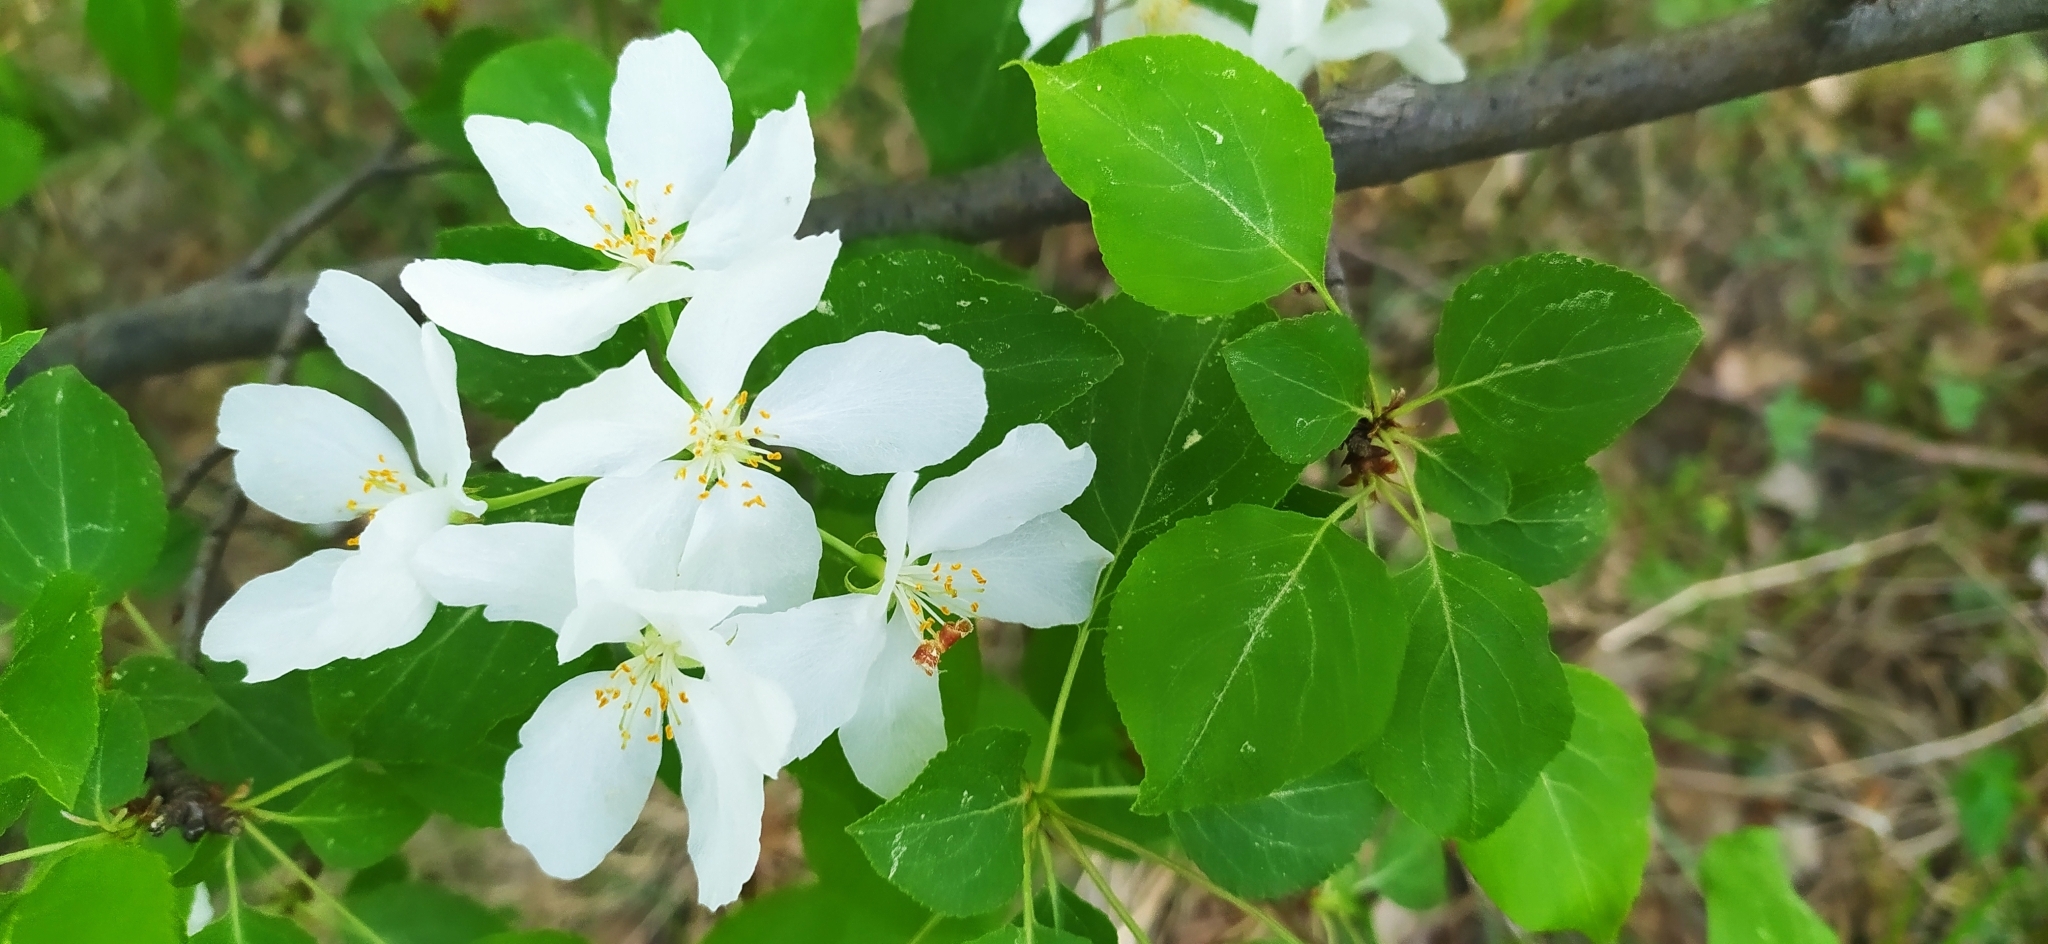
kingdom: Plantae
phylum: Tracheophyta
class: Magnoliopsida
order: Rosales
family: Rosaceae
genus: Malus
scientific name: Malus baccata
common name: Siberian crab
